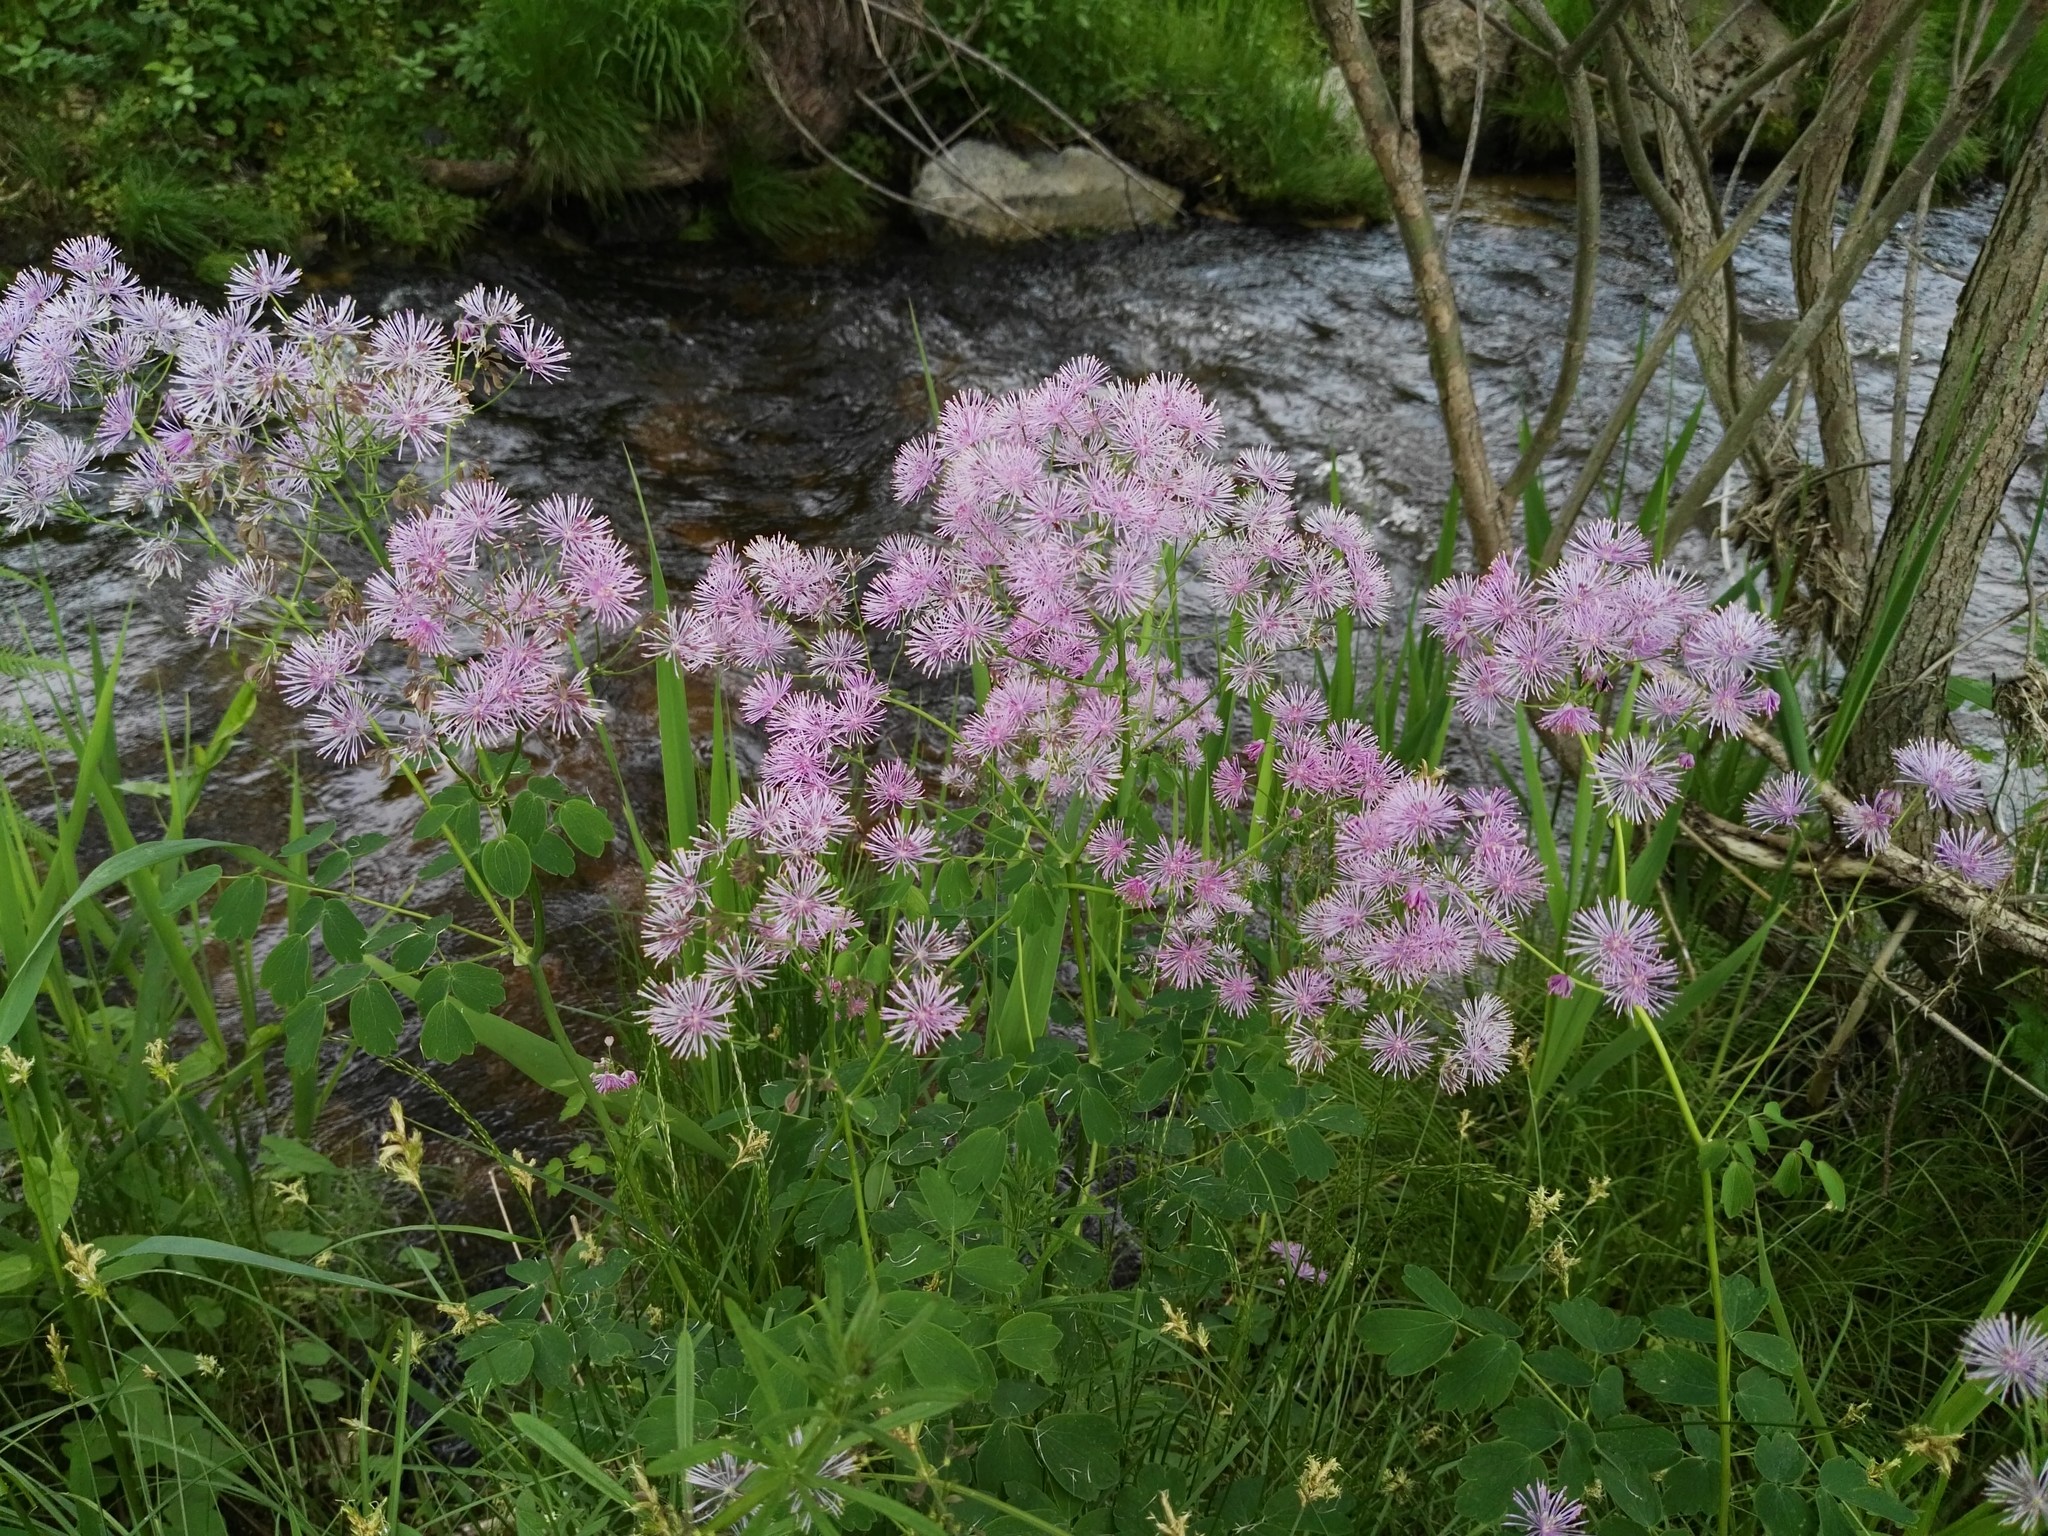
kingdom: Plantae
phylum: Tracheophyta
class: Magnoliopsida
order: Ranunculales
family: Ranunculaceae
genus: Thalictrum
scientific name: Thalictrum aquilegiifolium
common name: French meadow-rue
